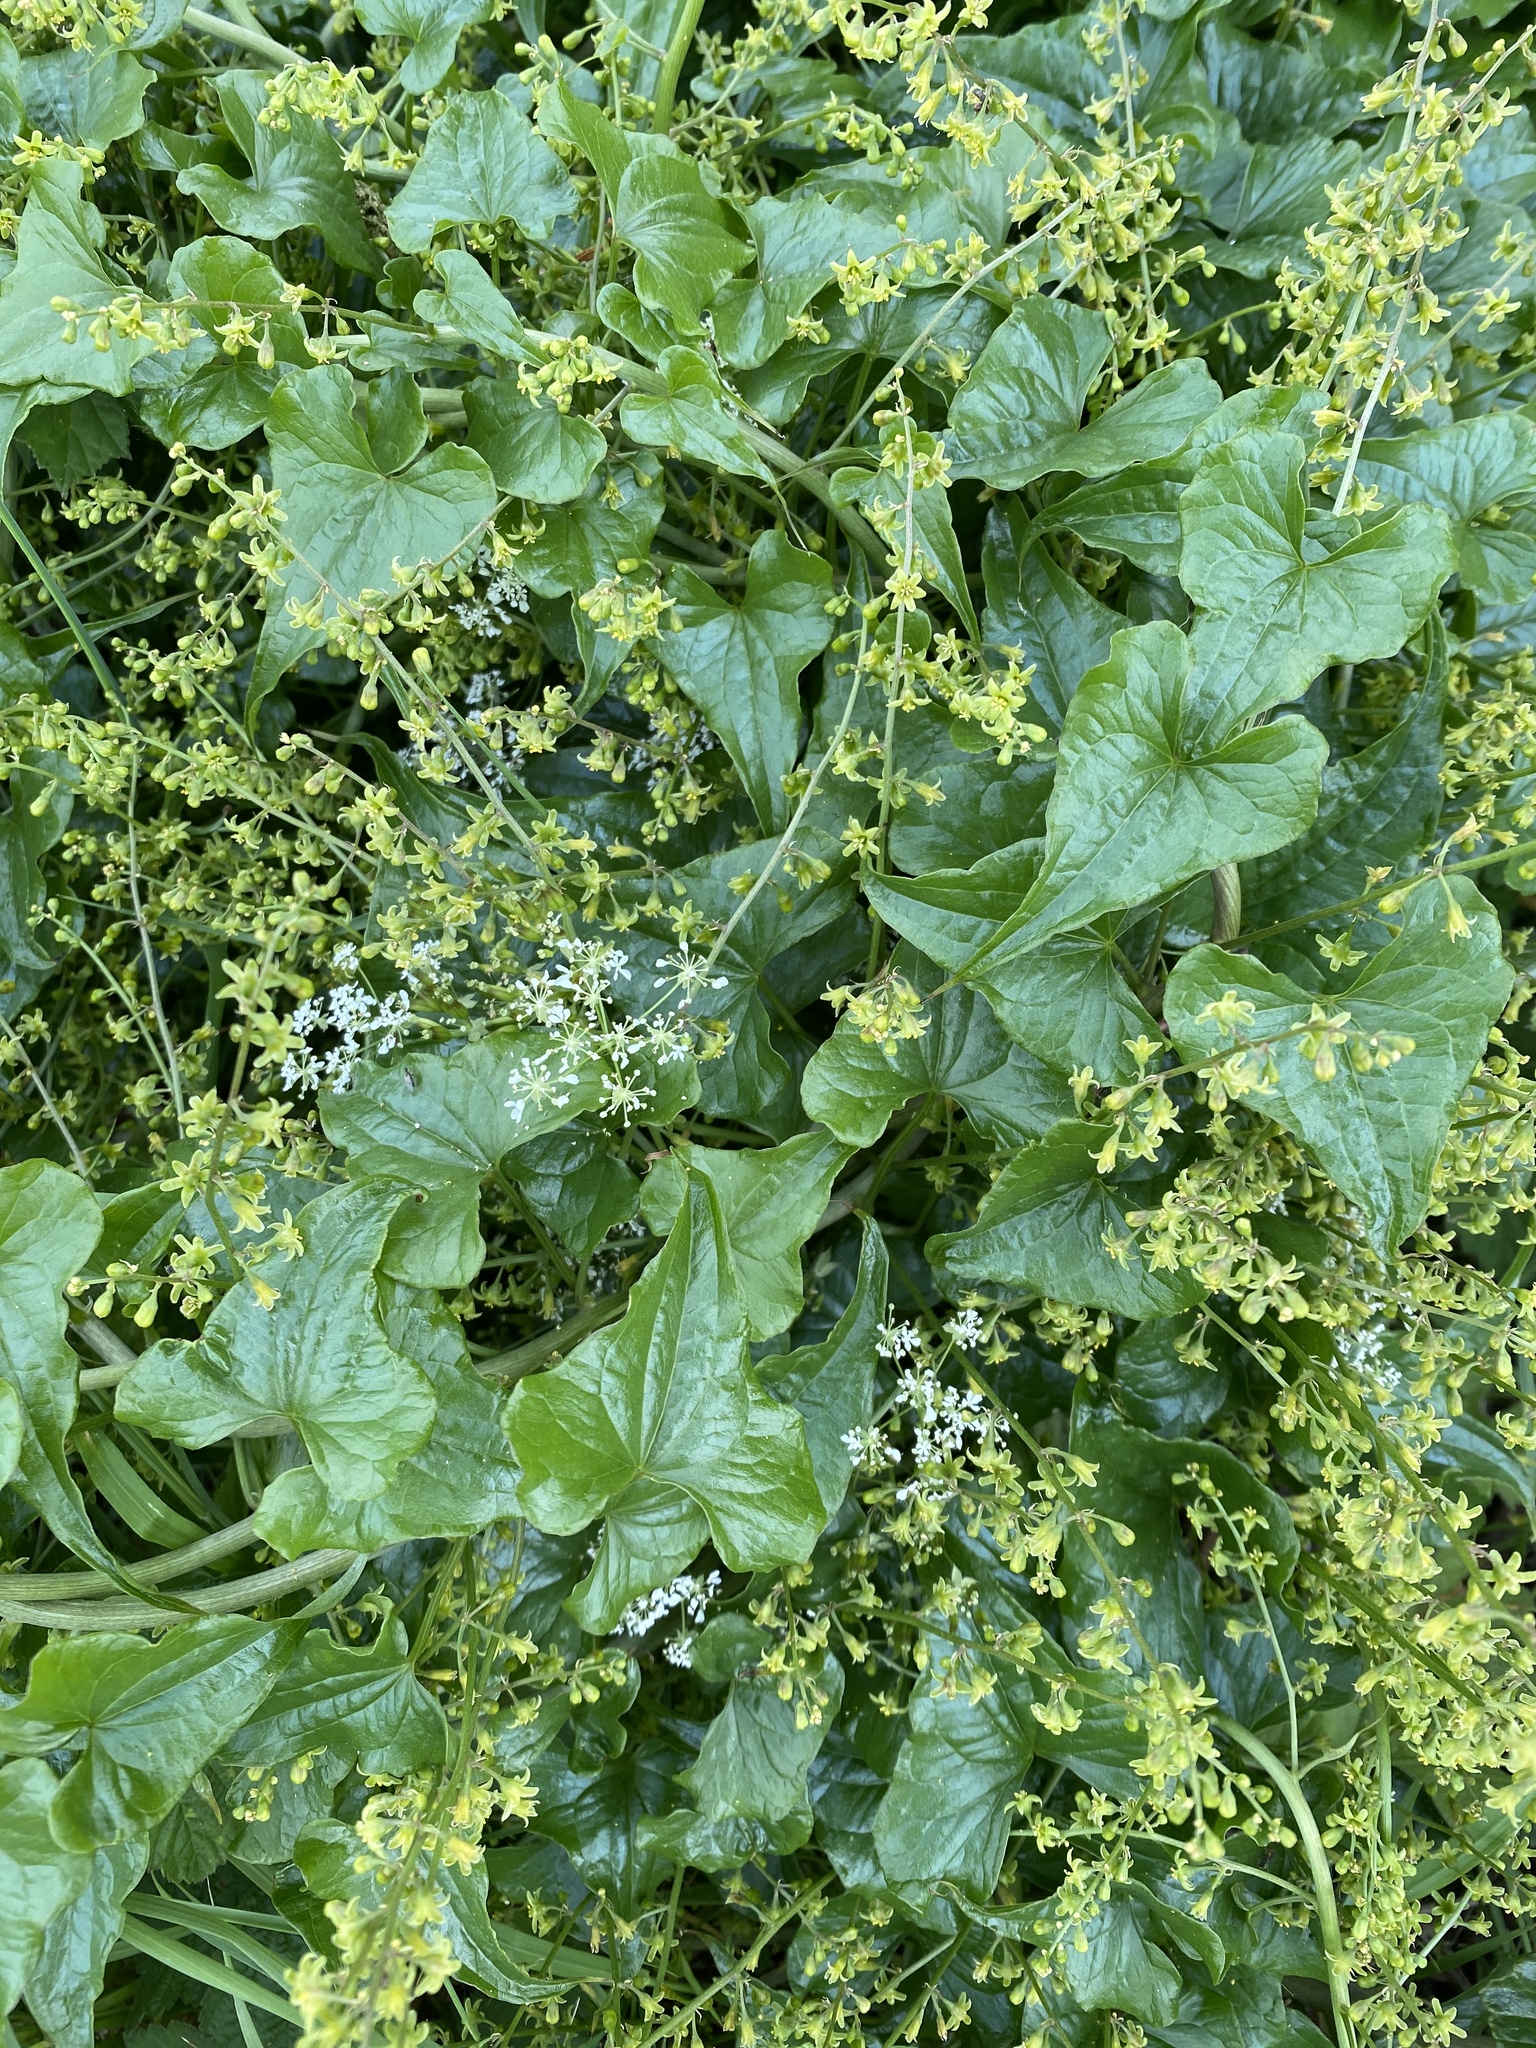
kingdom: Plantae
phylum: Tracheophyta
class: Liliopsida
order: Dioscoreales
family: Dioscoreaceae
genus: Dioscorea
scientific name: Dioscorea communis
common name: Black-bindweed
